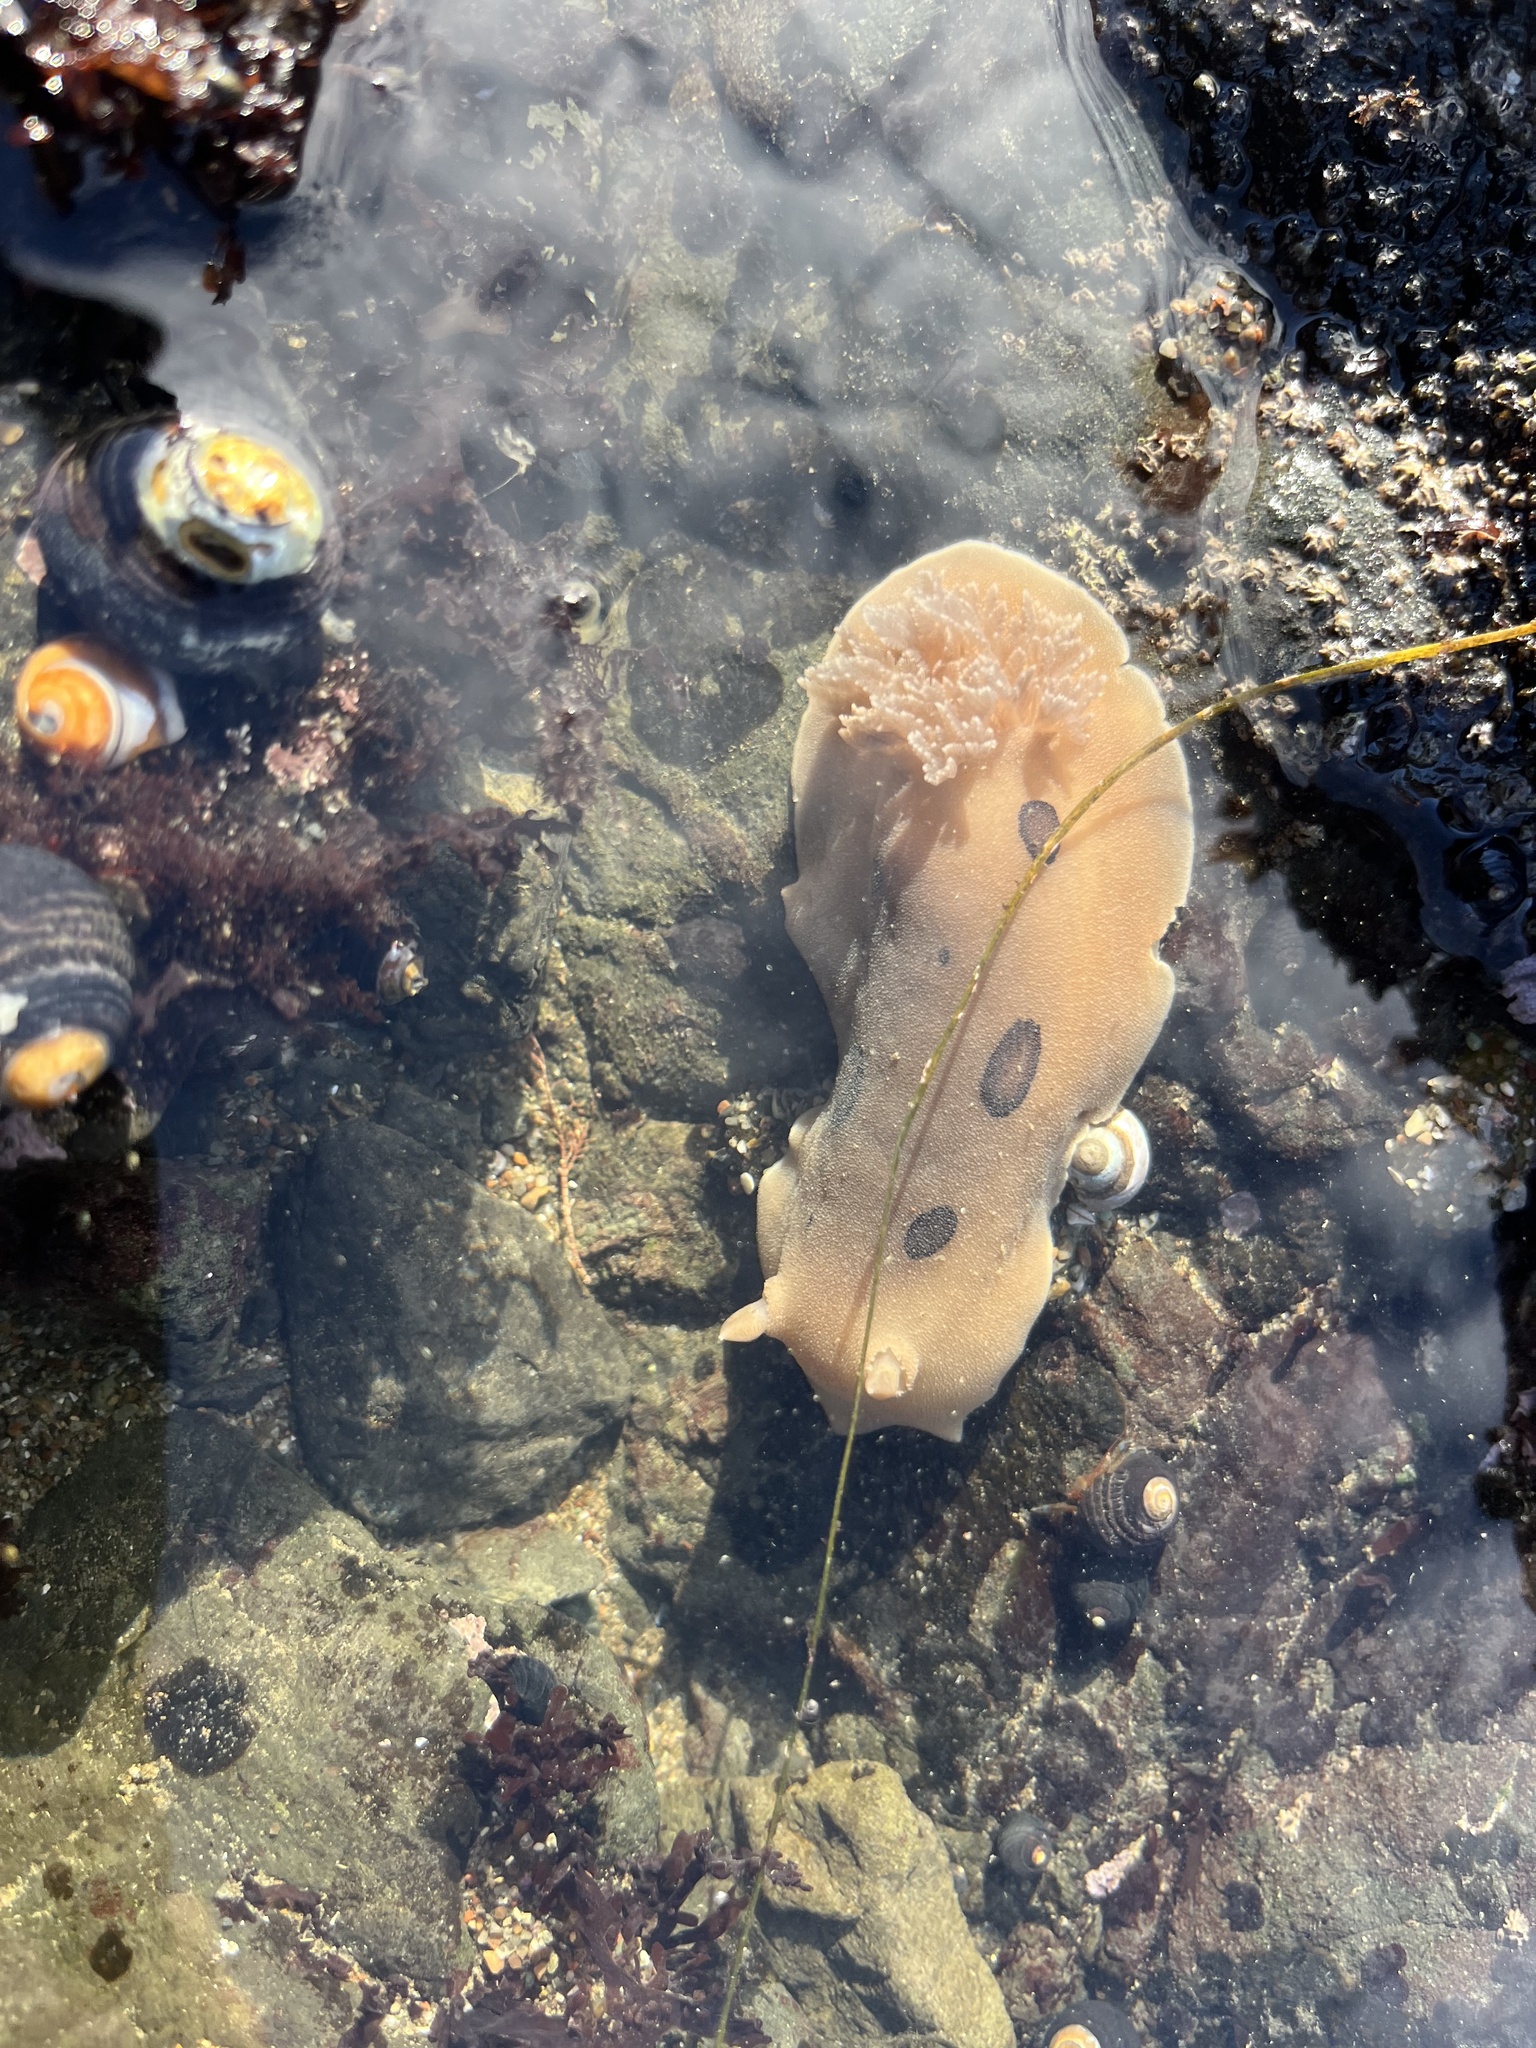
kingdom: Animalia
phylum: Mollusca
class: Gastropoda
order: Nudibranchia
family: Discodorididae
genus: Diaulula
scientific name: Diaulula sandiegensis
